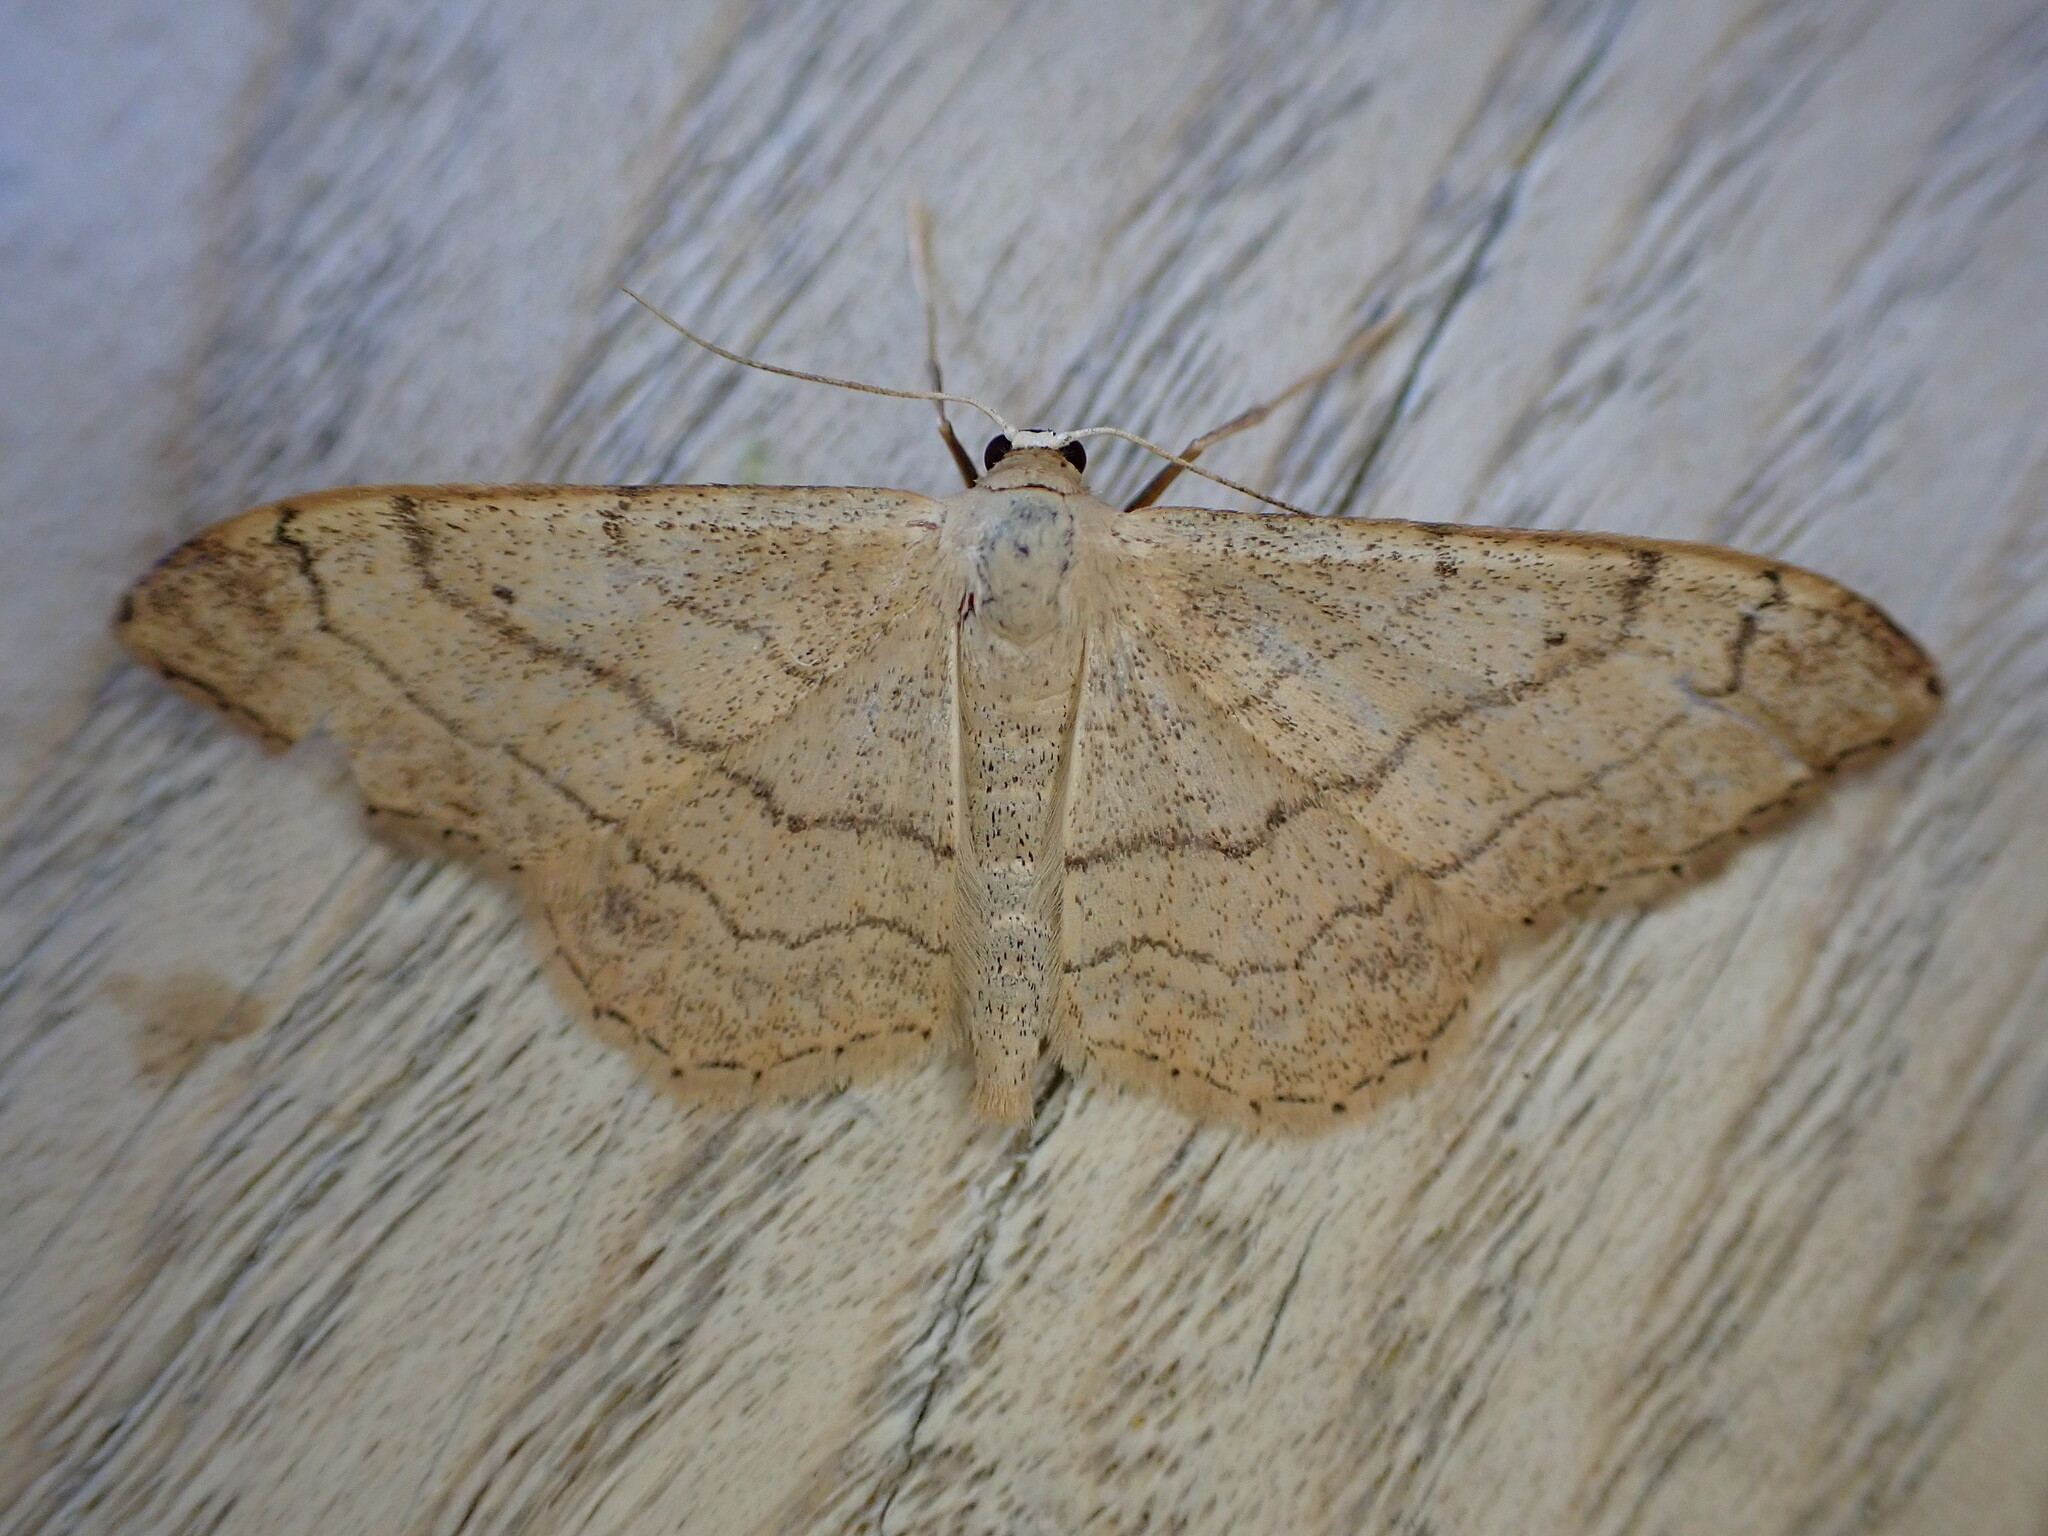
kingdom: Animalia
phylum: Arthropoda
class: Insecta
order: Lepidoptera
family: Geometridae
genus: Idaea
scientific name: Idaea aversata
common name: Riband wave
